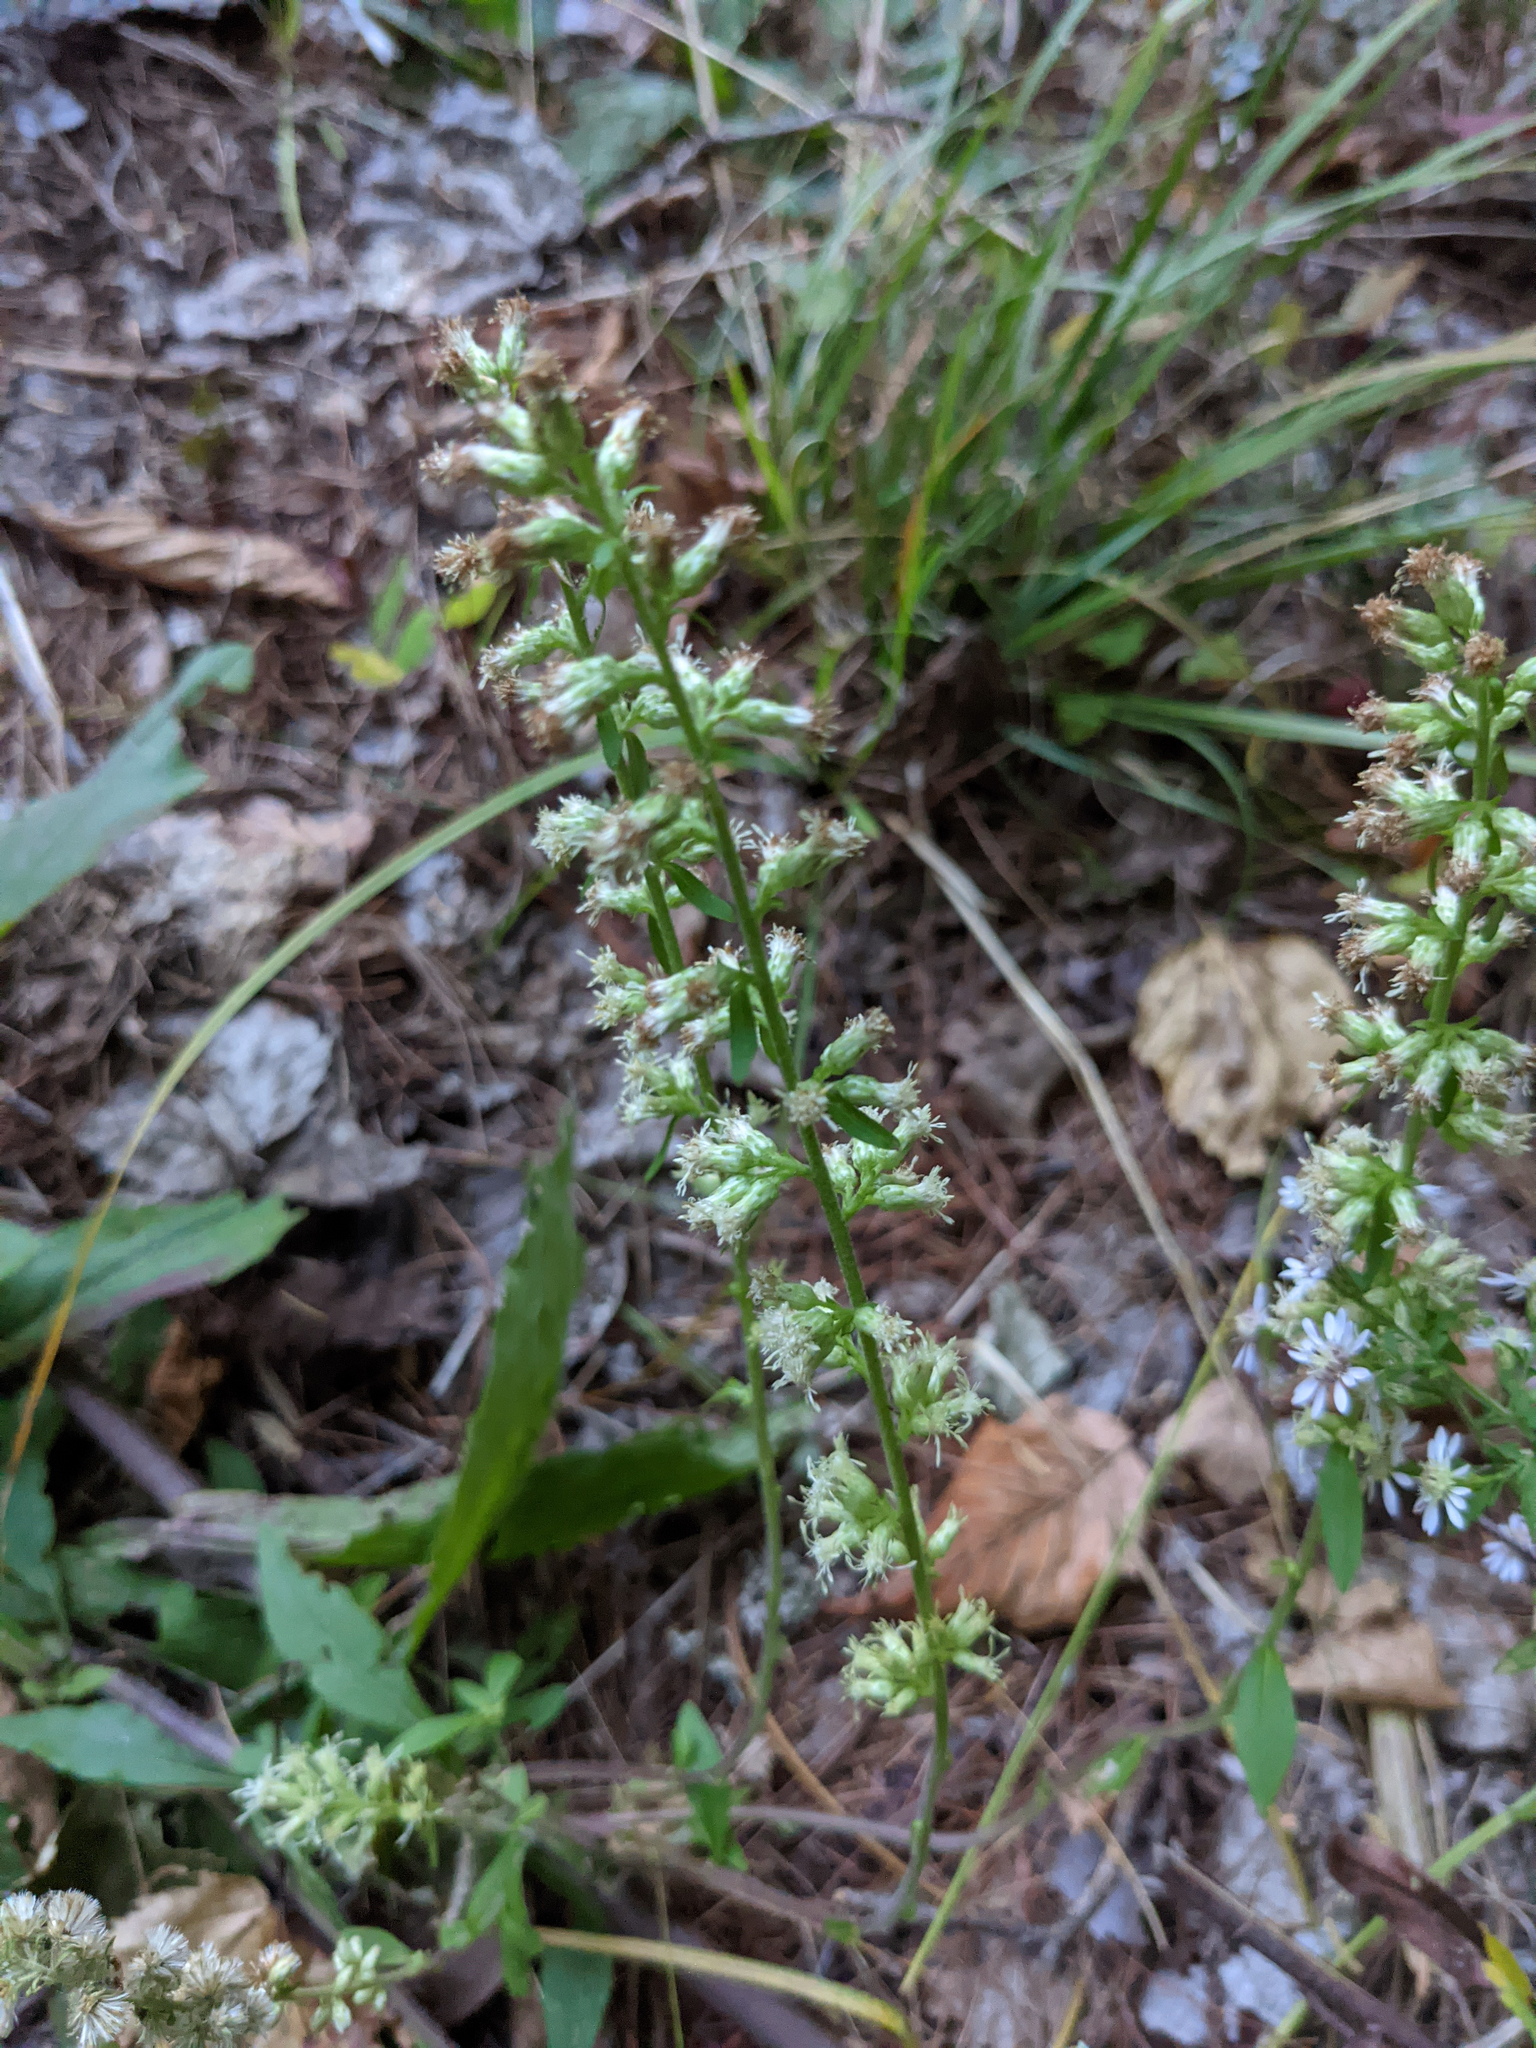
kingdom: Plantae
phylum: Tracheophyta
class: Magnoliopsida
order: Asterales
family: Asteraceae
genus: Solidago
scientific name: Solidago bicolor
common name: Silverrod
